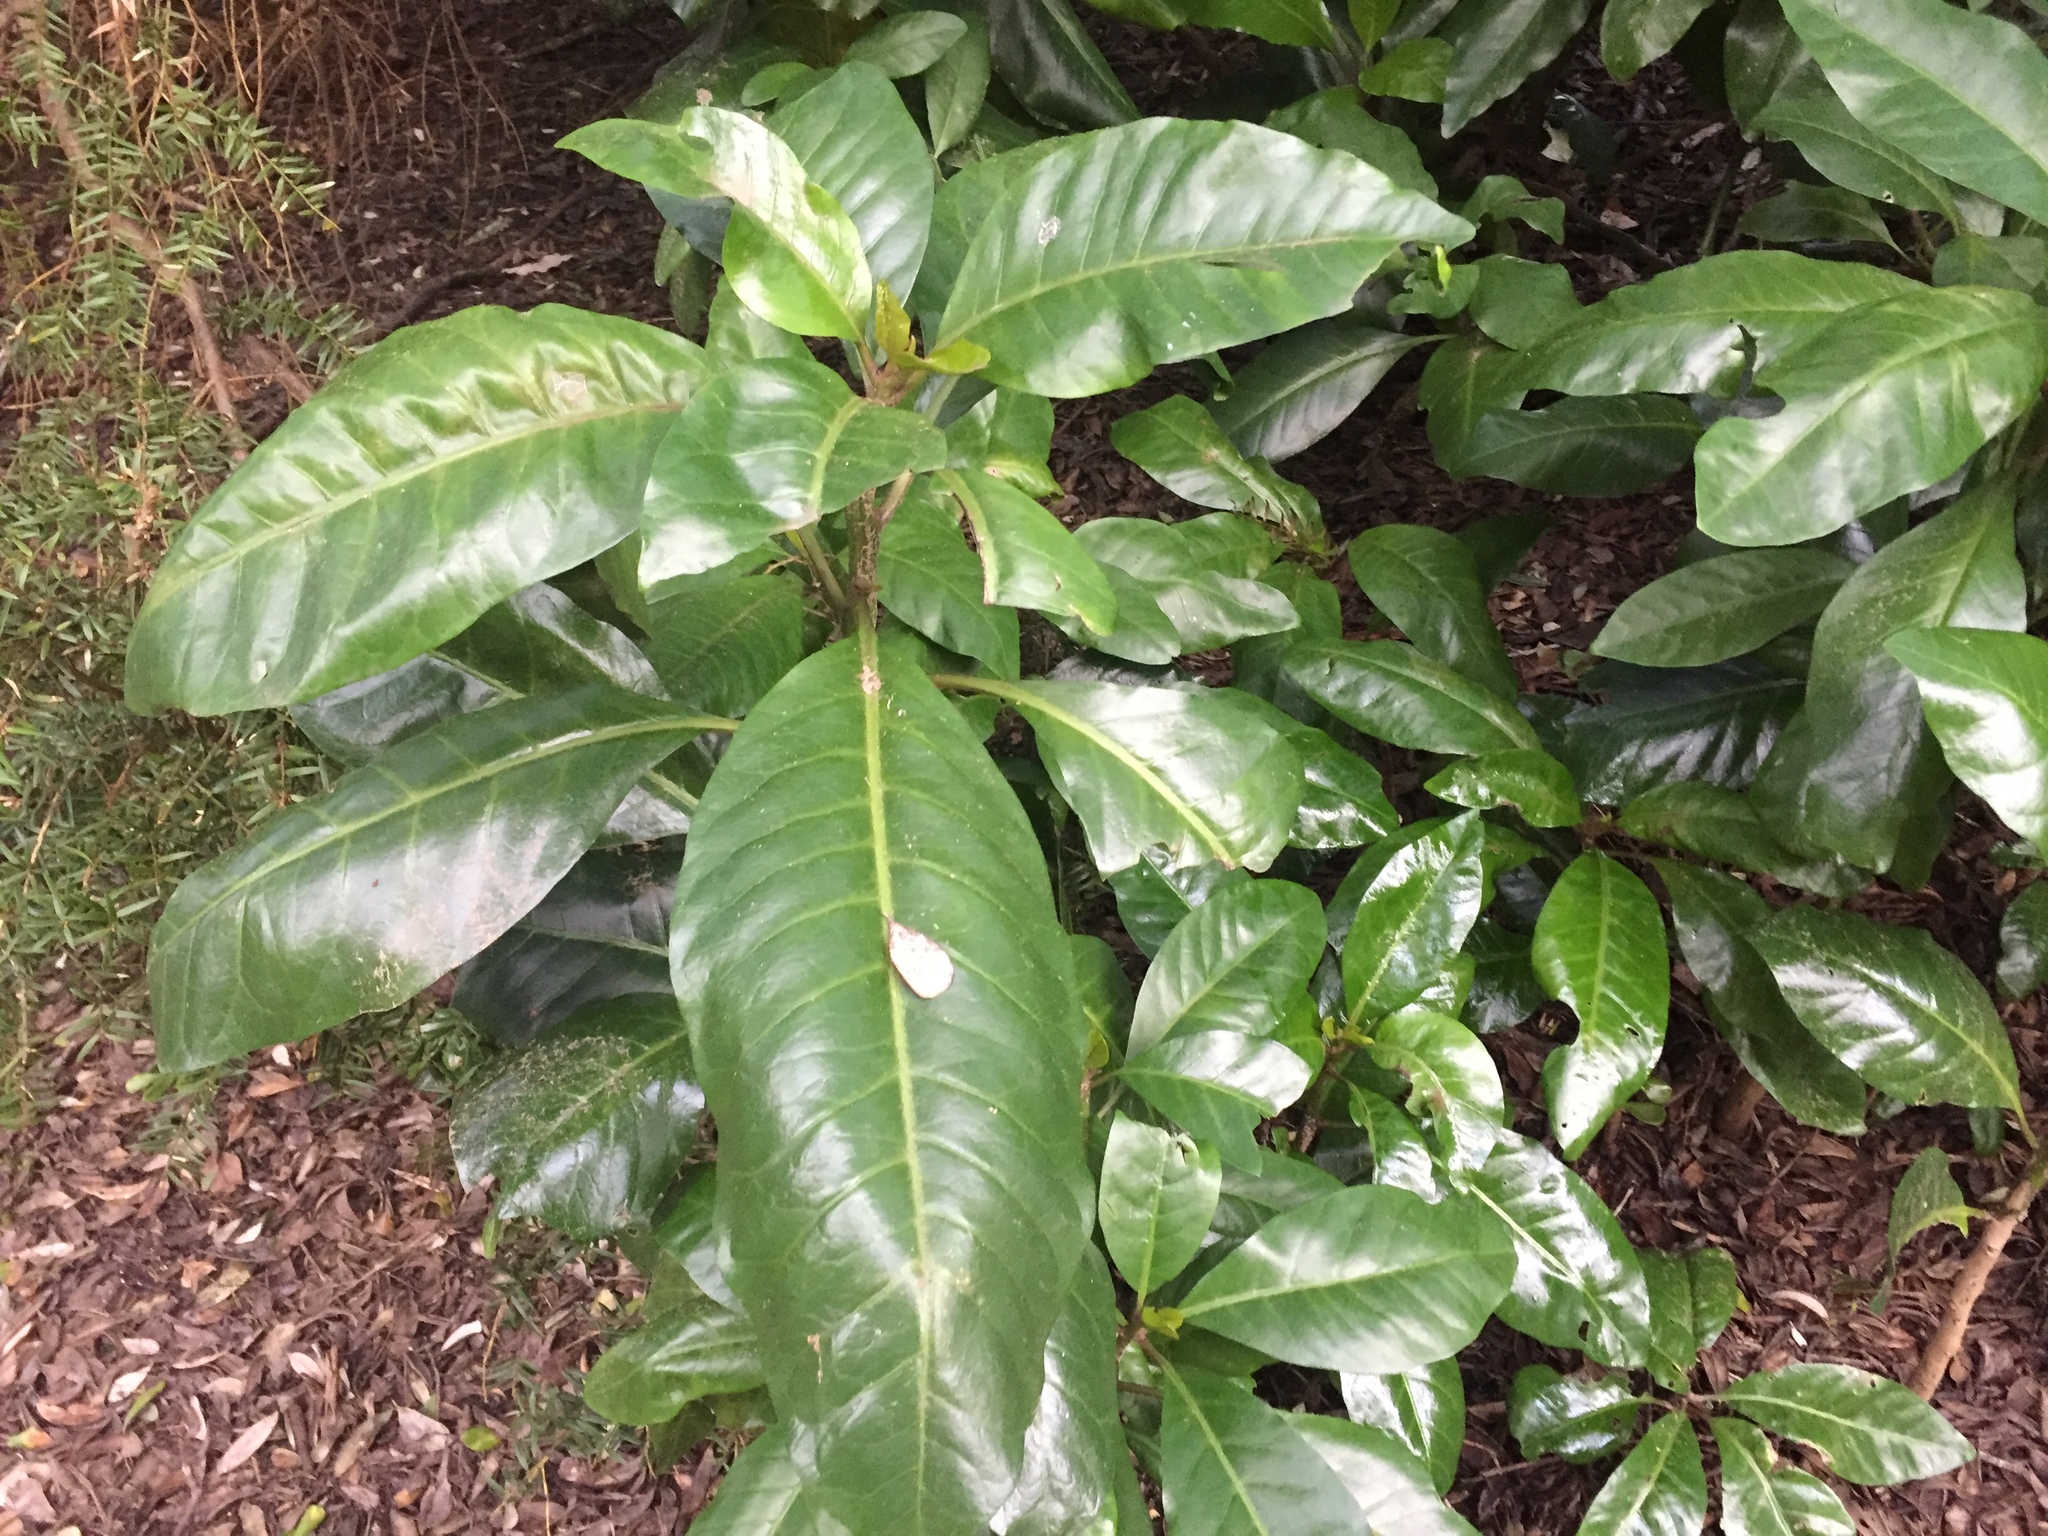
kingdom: Plantae
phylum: Tracheophyta
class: Magnoliopsida
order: Caryophyllales
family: Nyctaginaceae
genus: Ceodes
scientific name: Ceodes brunoniana
